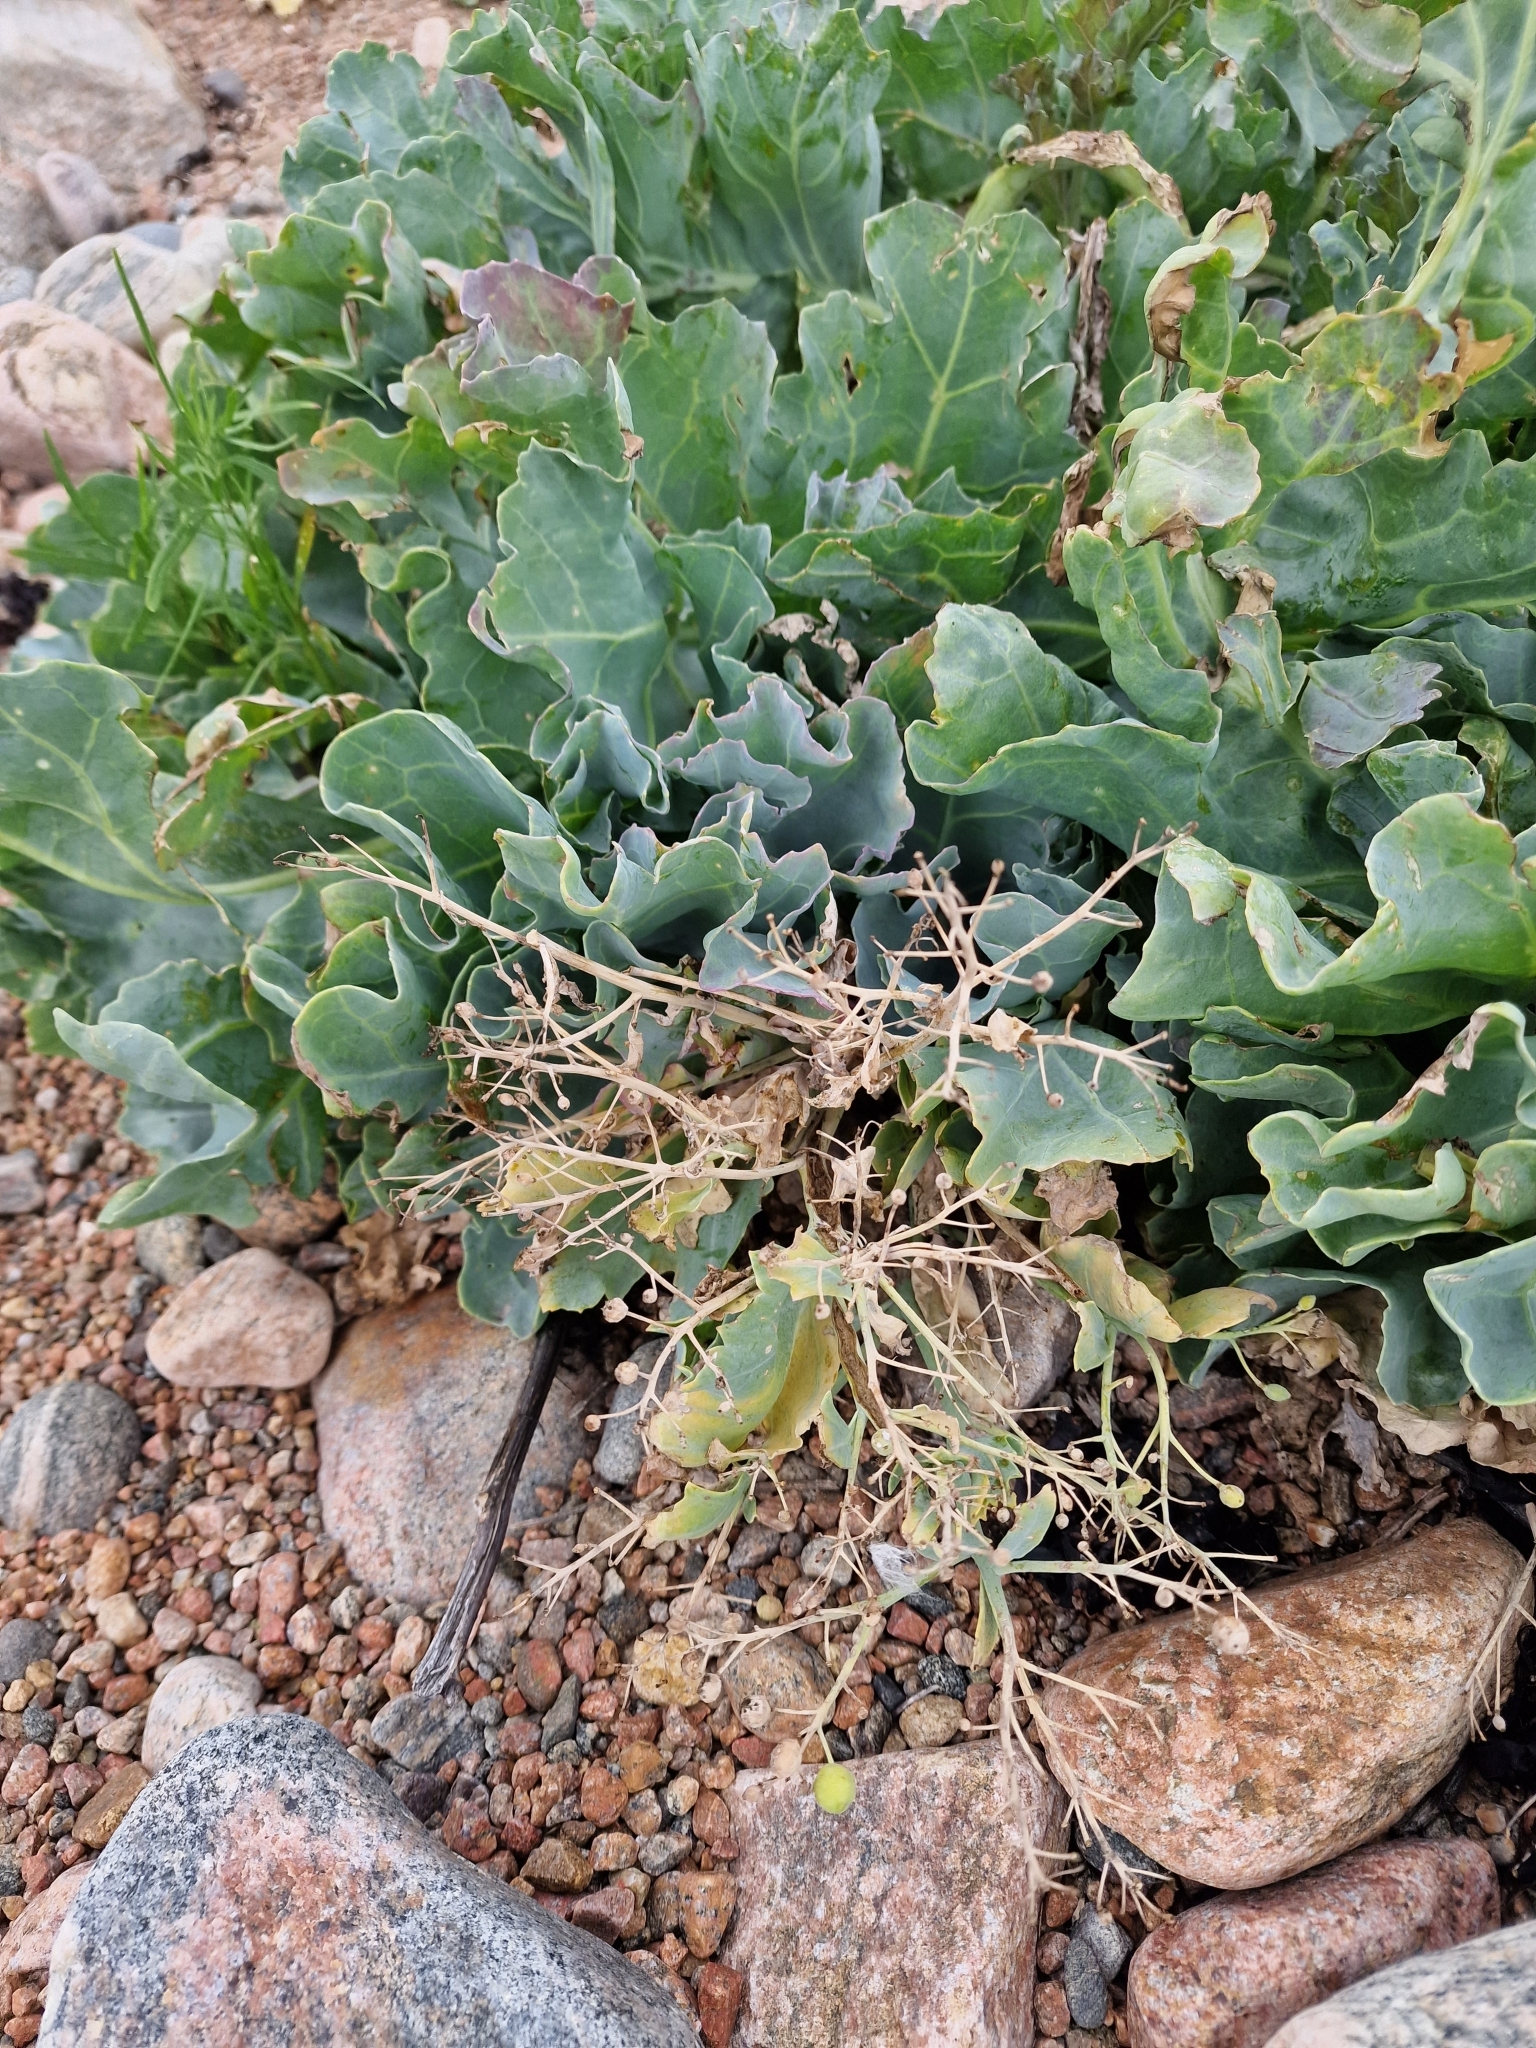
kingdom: Plantae
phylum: Tracheophyta
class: Magnoliopsida
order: Brassicales
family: Brassicaceae
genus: Crambe
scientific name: Crambe maritima
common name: Sea-kale
